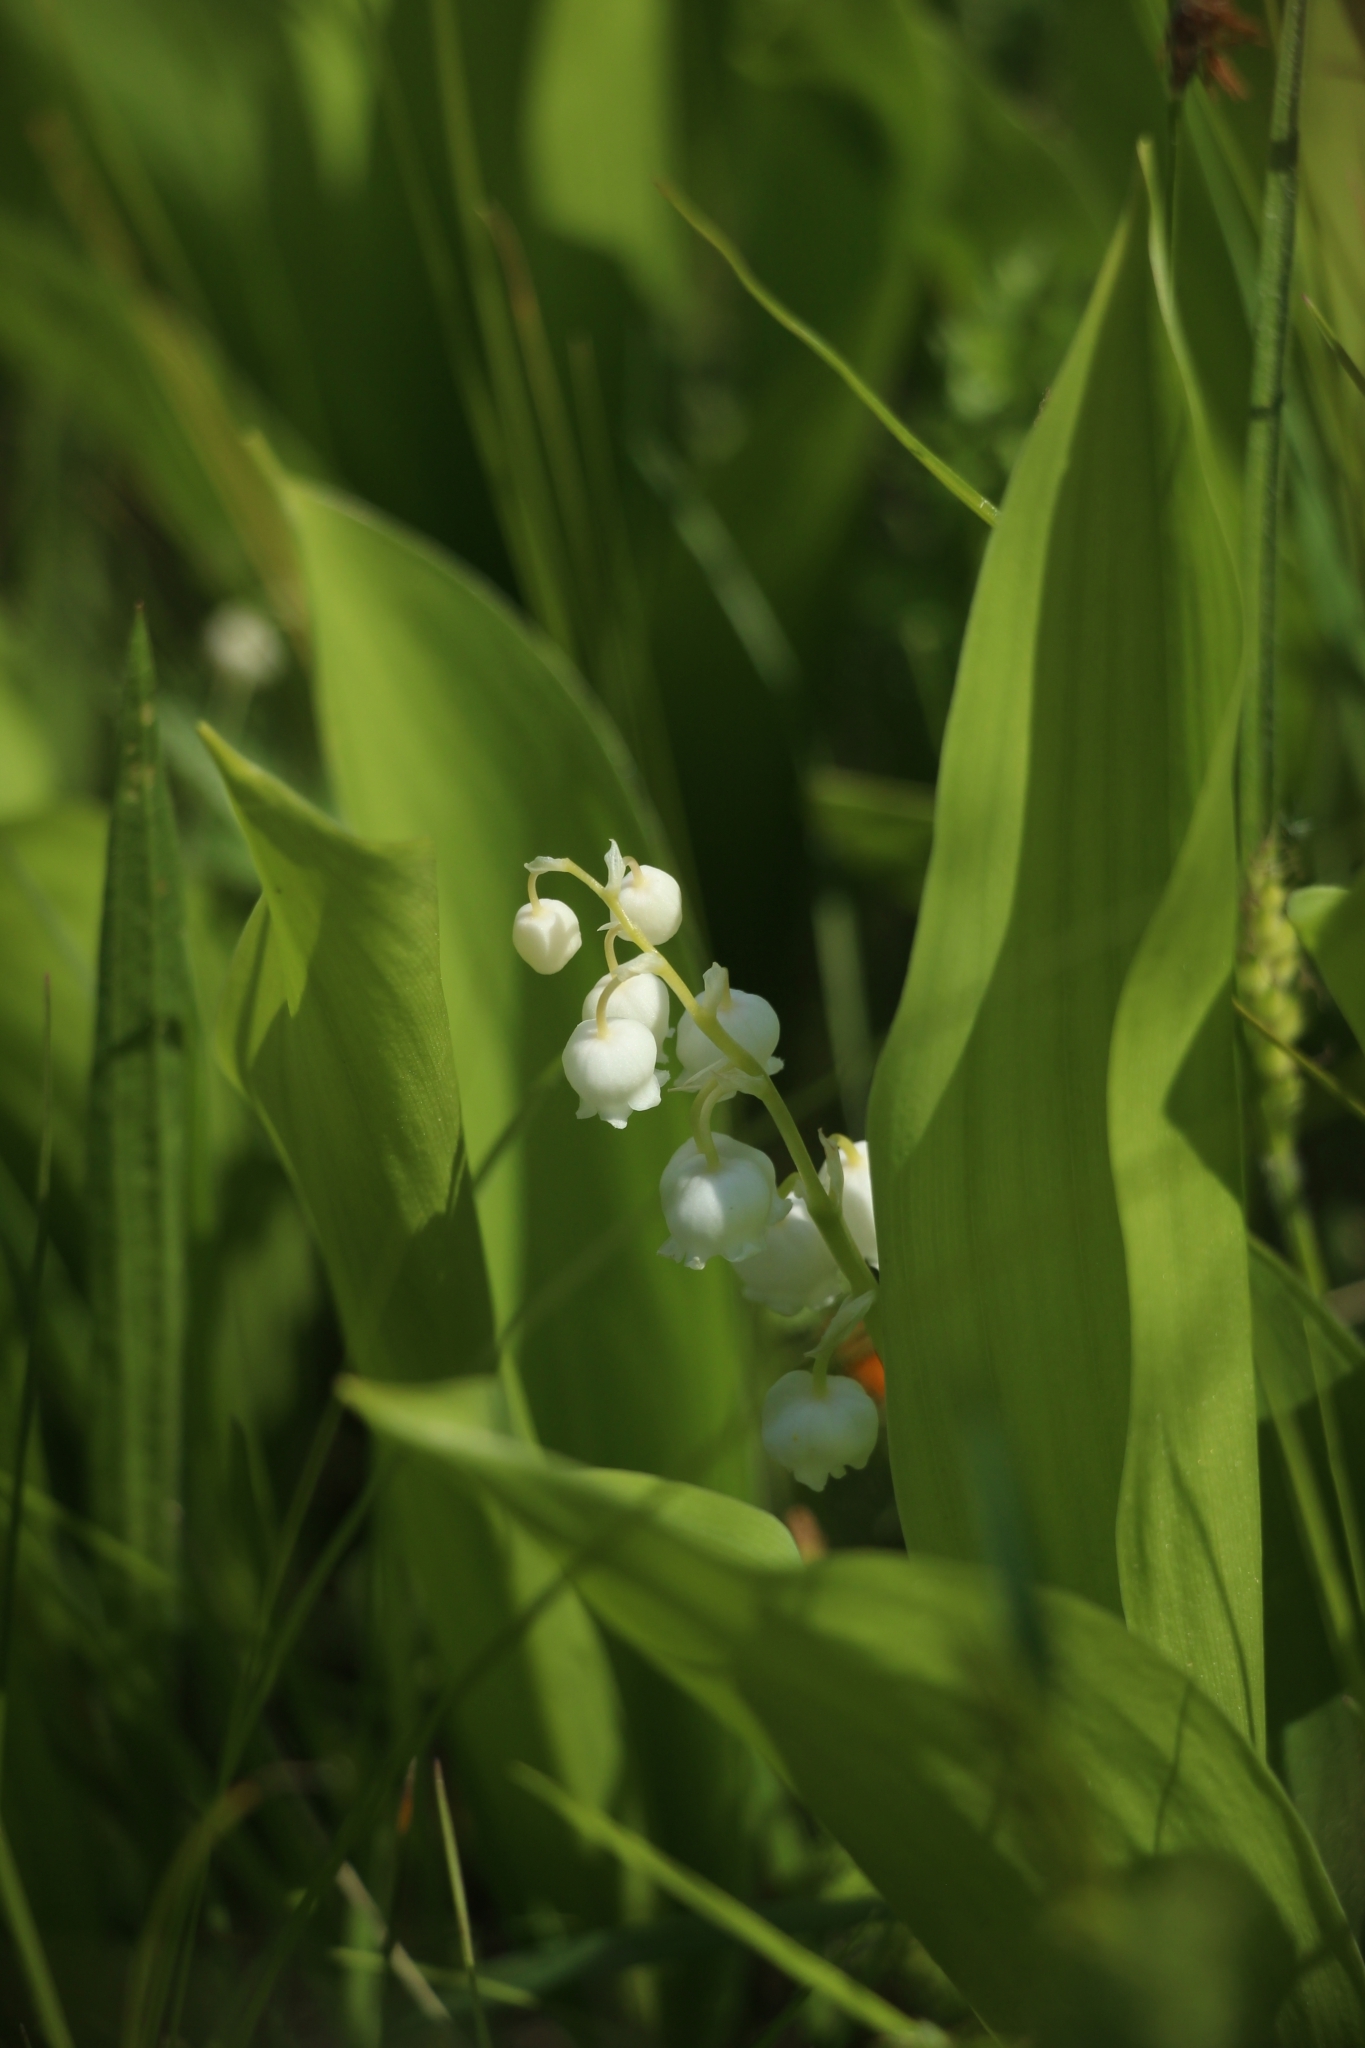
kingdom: Plantae
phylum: Tracheophyta
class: Liliopsida
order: Asparagales
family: Asparagaceae
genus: Convallaria
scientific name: Convallaria majalis
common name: Lily-of-the-valley
